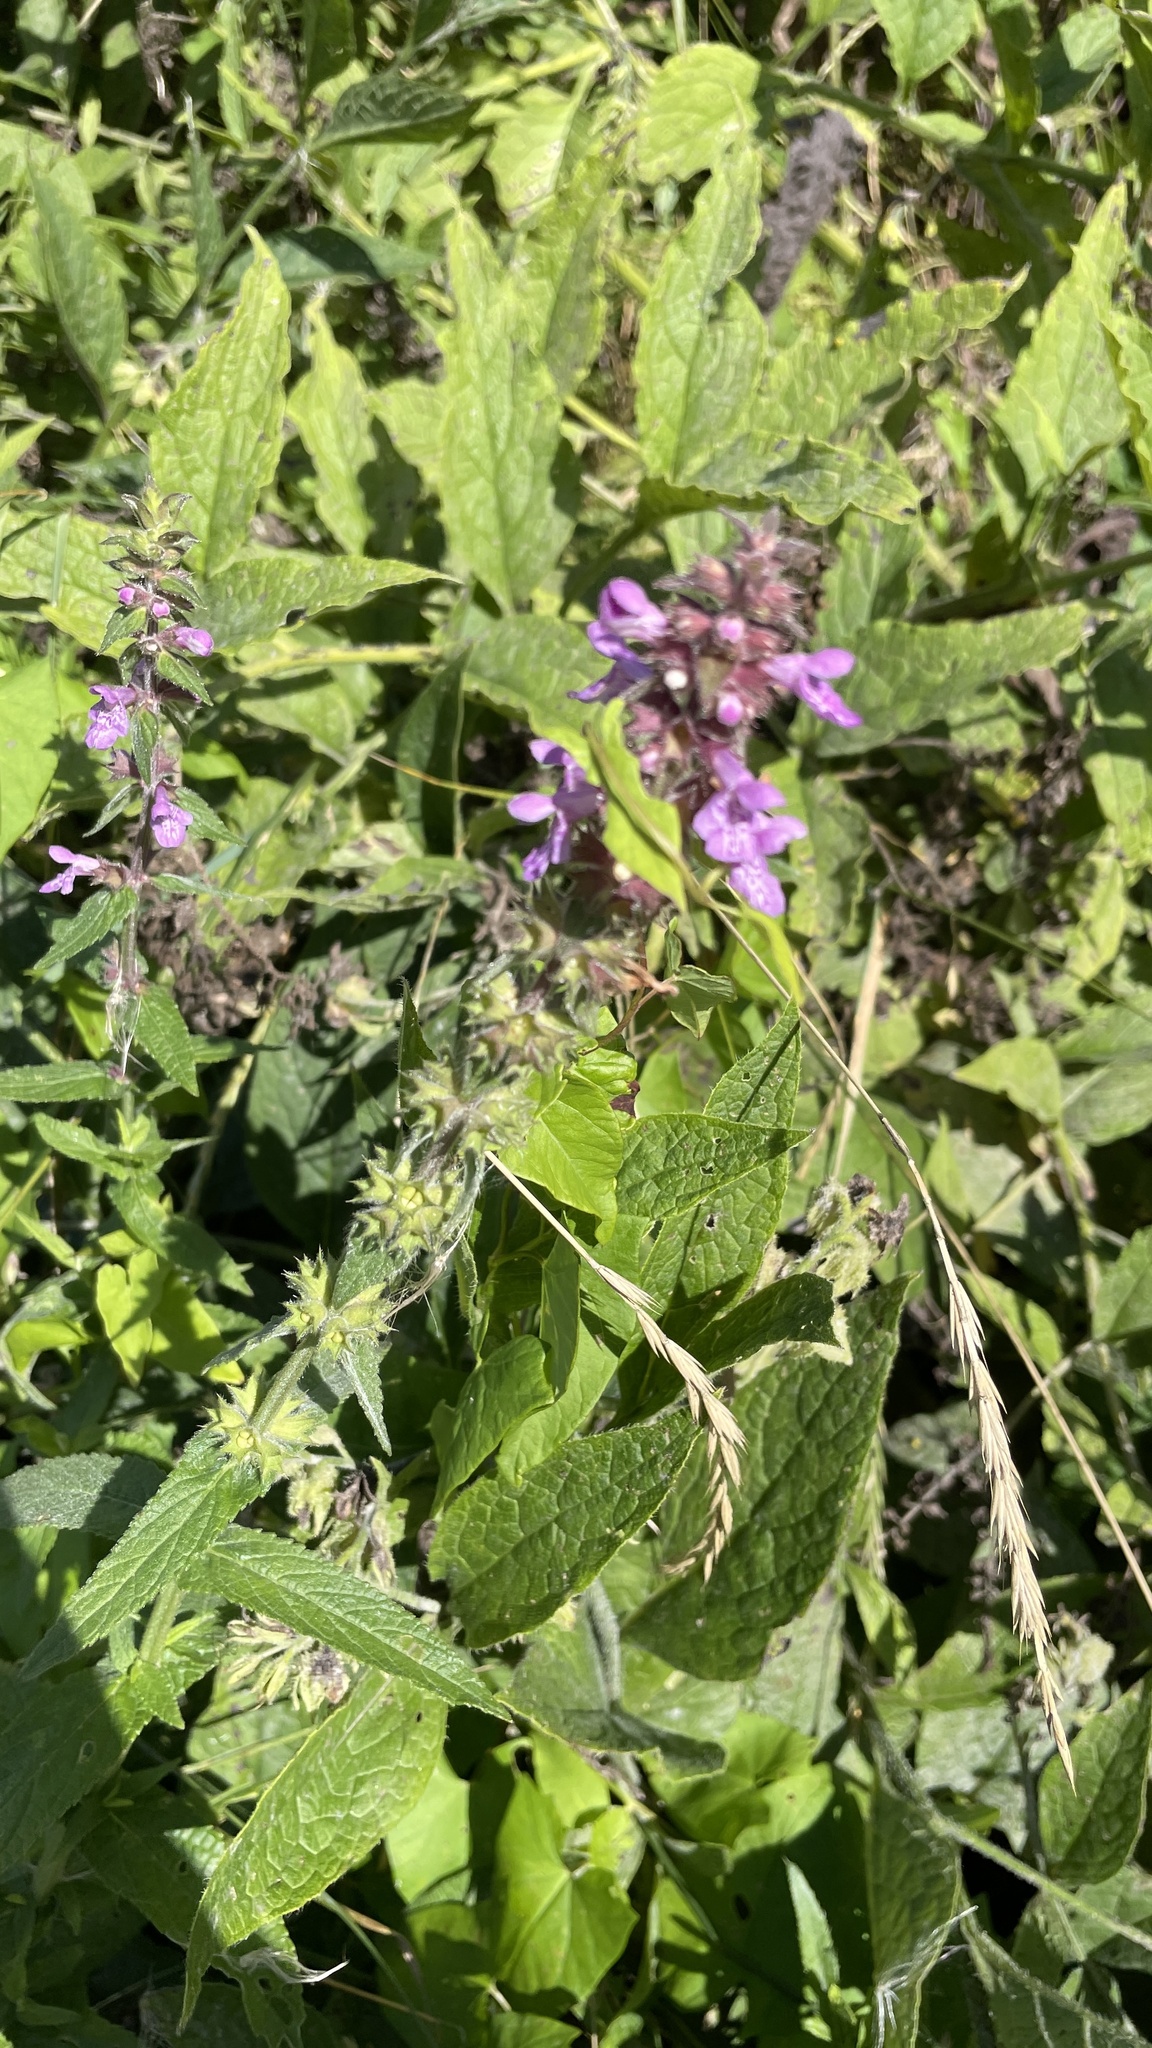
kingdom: Plantae
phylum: Tracheophyta
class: Magnoliopsida
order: Lamiales
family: Lamiaceae
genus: Stachys
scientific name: Stachys palustris
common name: Marsh woundwort
